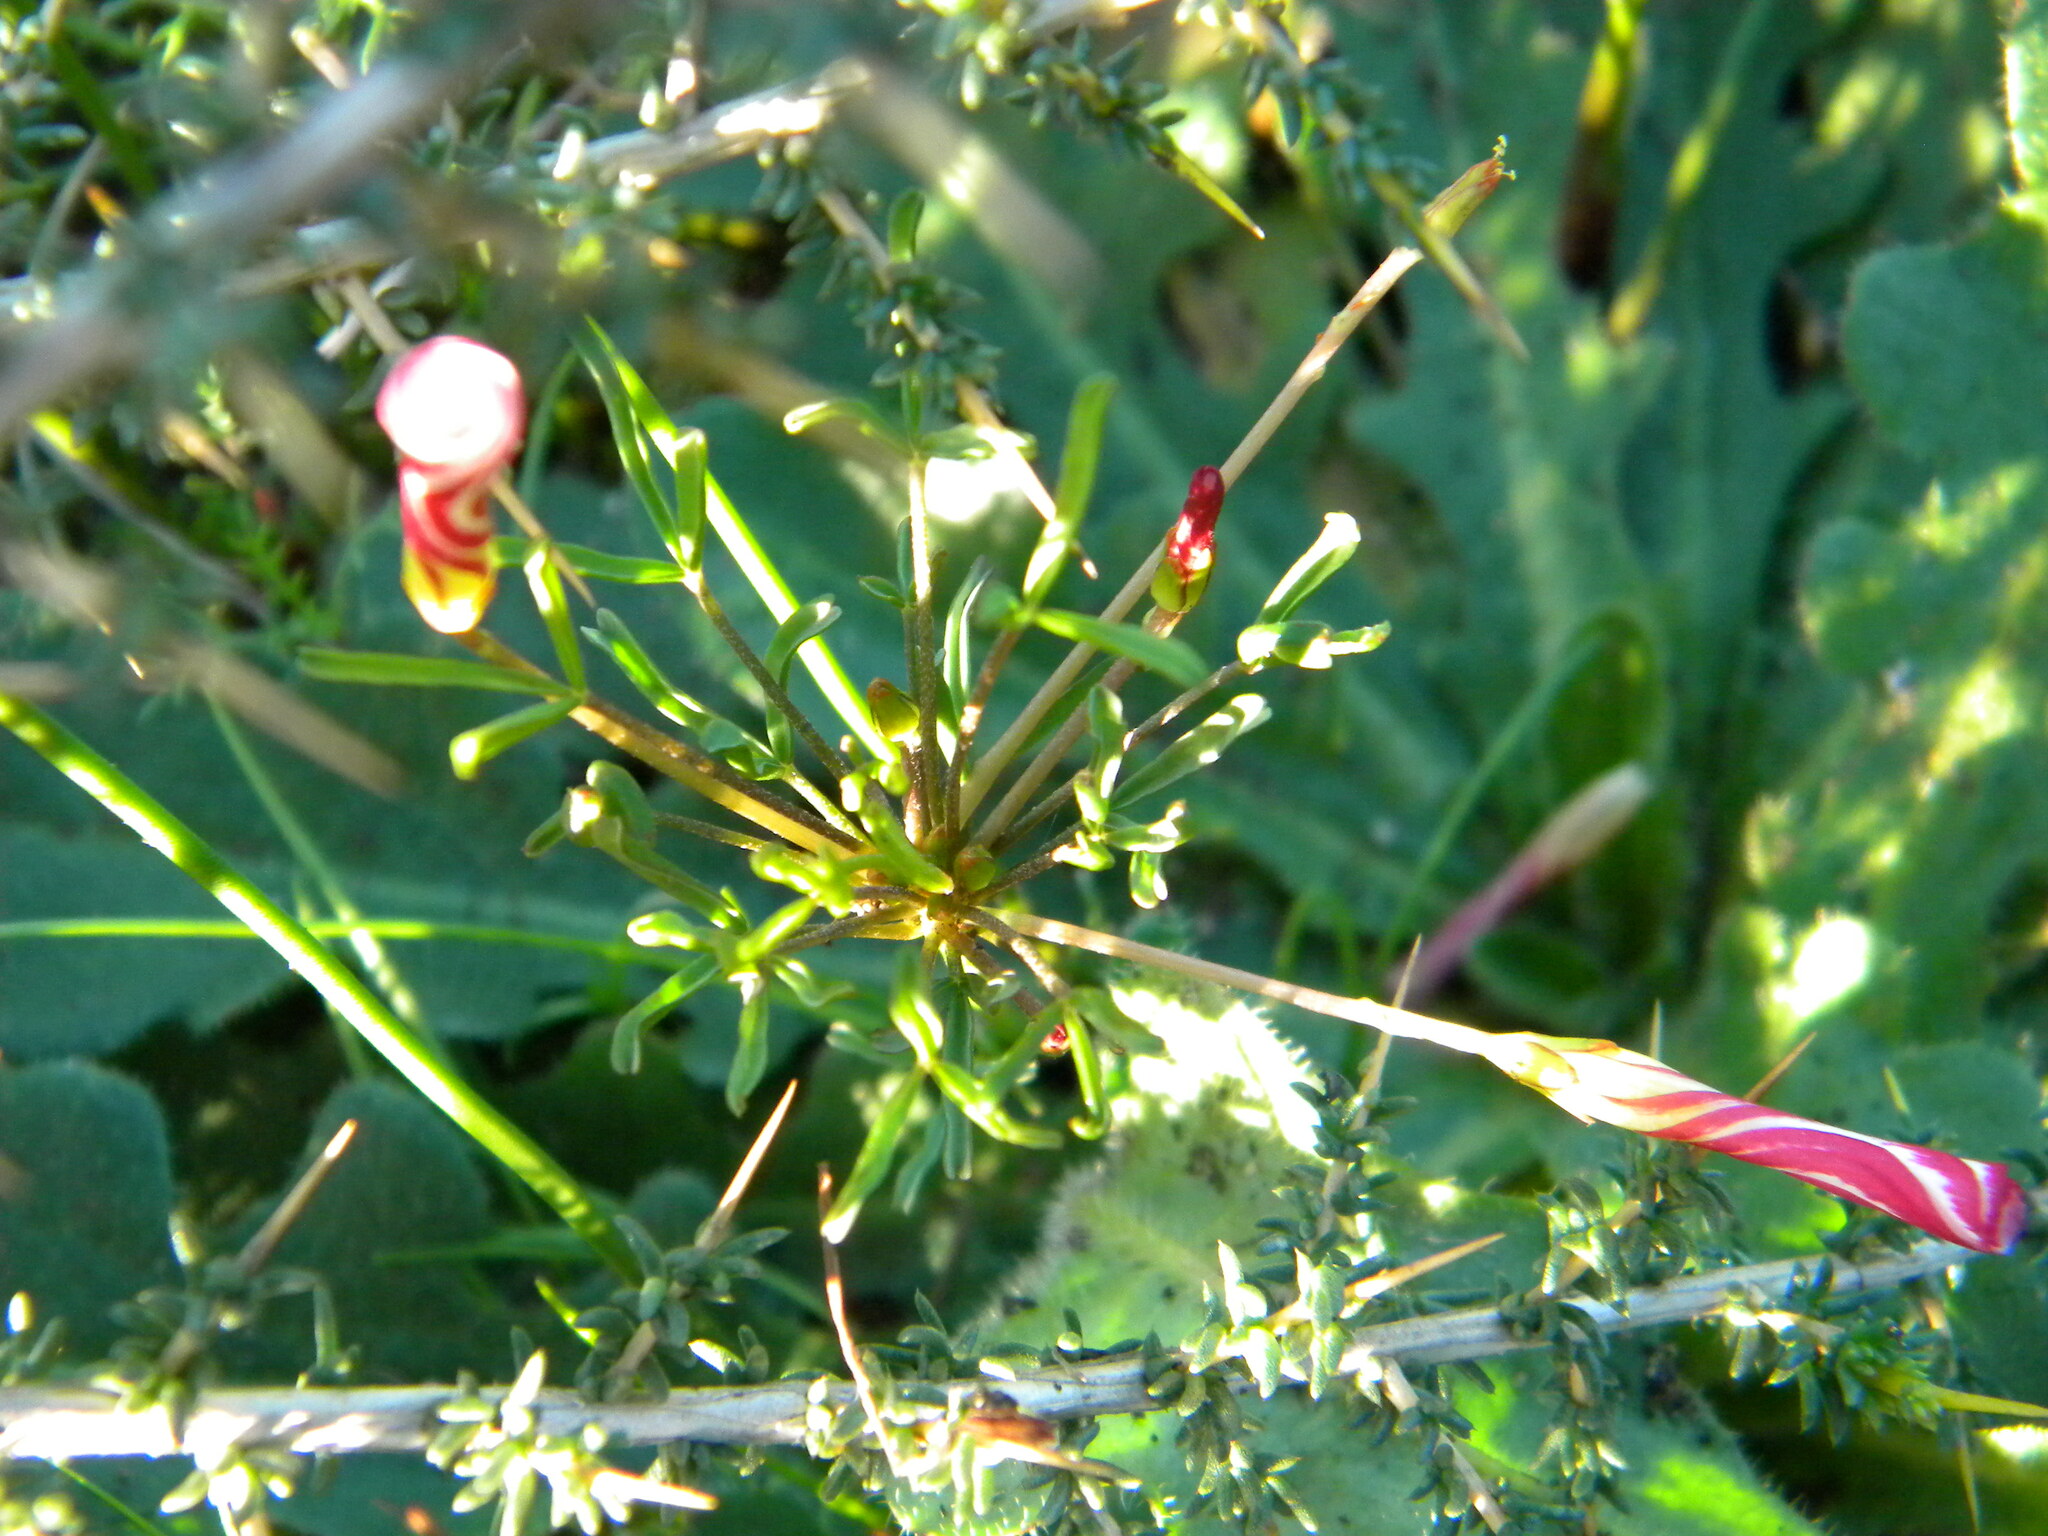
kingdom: Plantae
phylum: Tracheophyta
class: Magnoliopsida
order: Oxalidales
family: Oxalidaceae
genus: Oxalis
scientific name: Oxalis versicolor
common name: Peppermint rock oxalis
